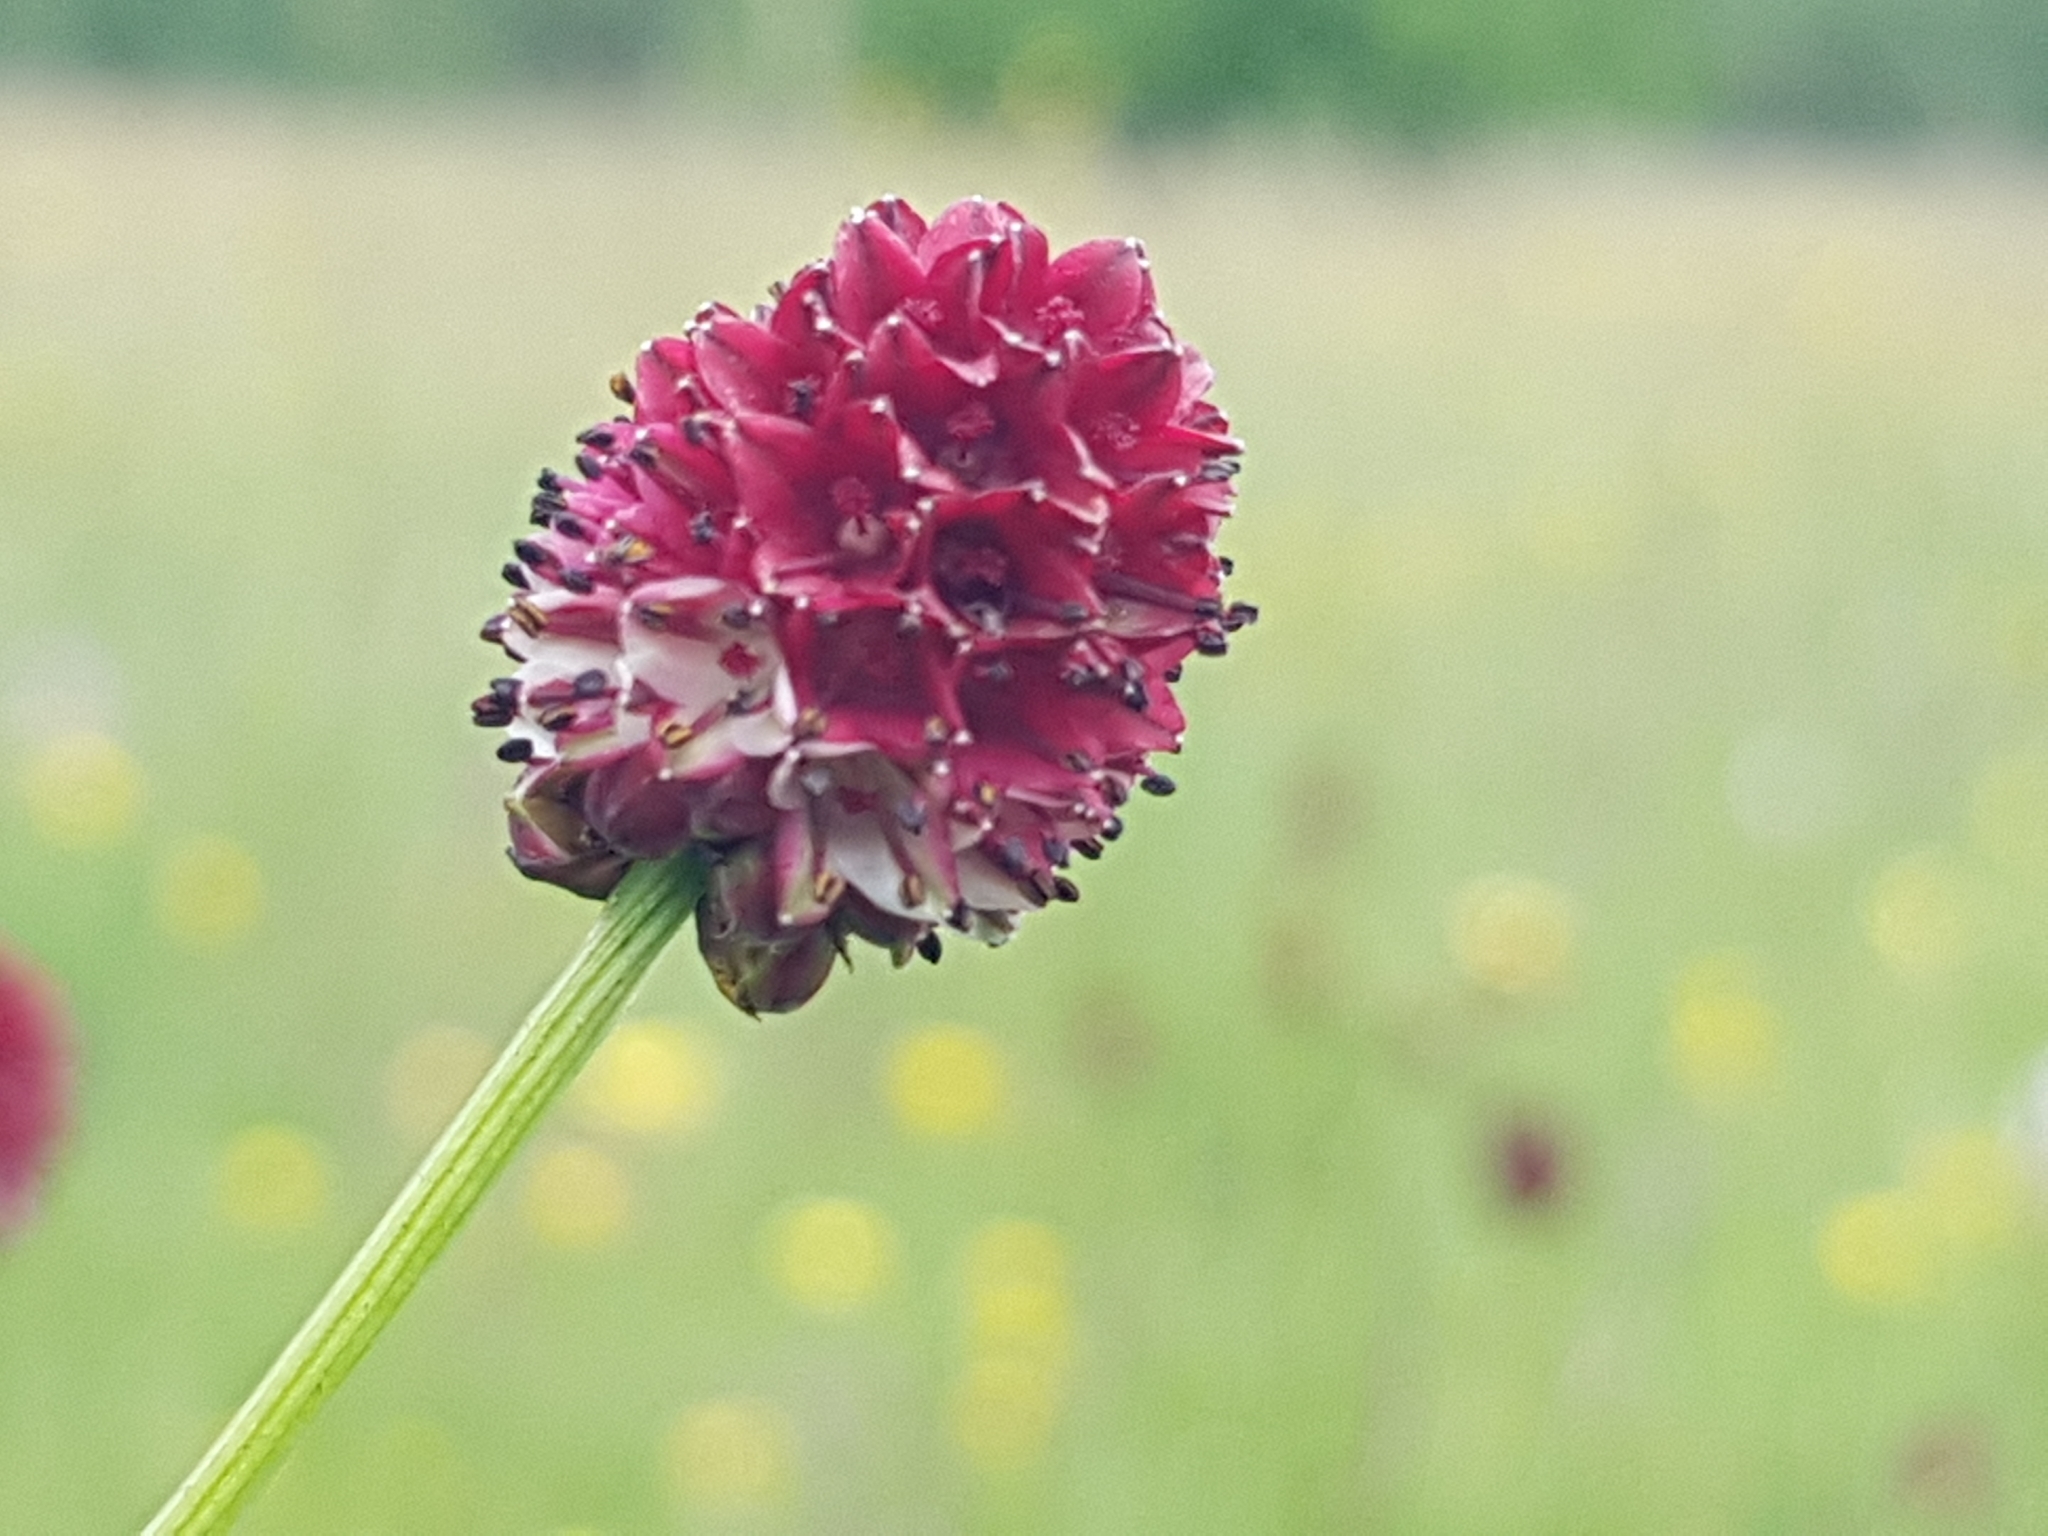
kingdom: Plantae
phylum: Tracheophyta
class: Magnoliopsida
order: Rosales
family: Rosaceae
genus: Sanguisorba
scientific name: Sanguisorba officinalis
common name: Great burnet
